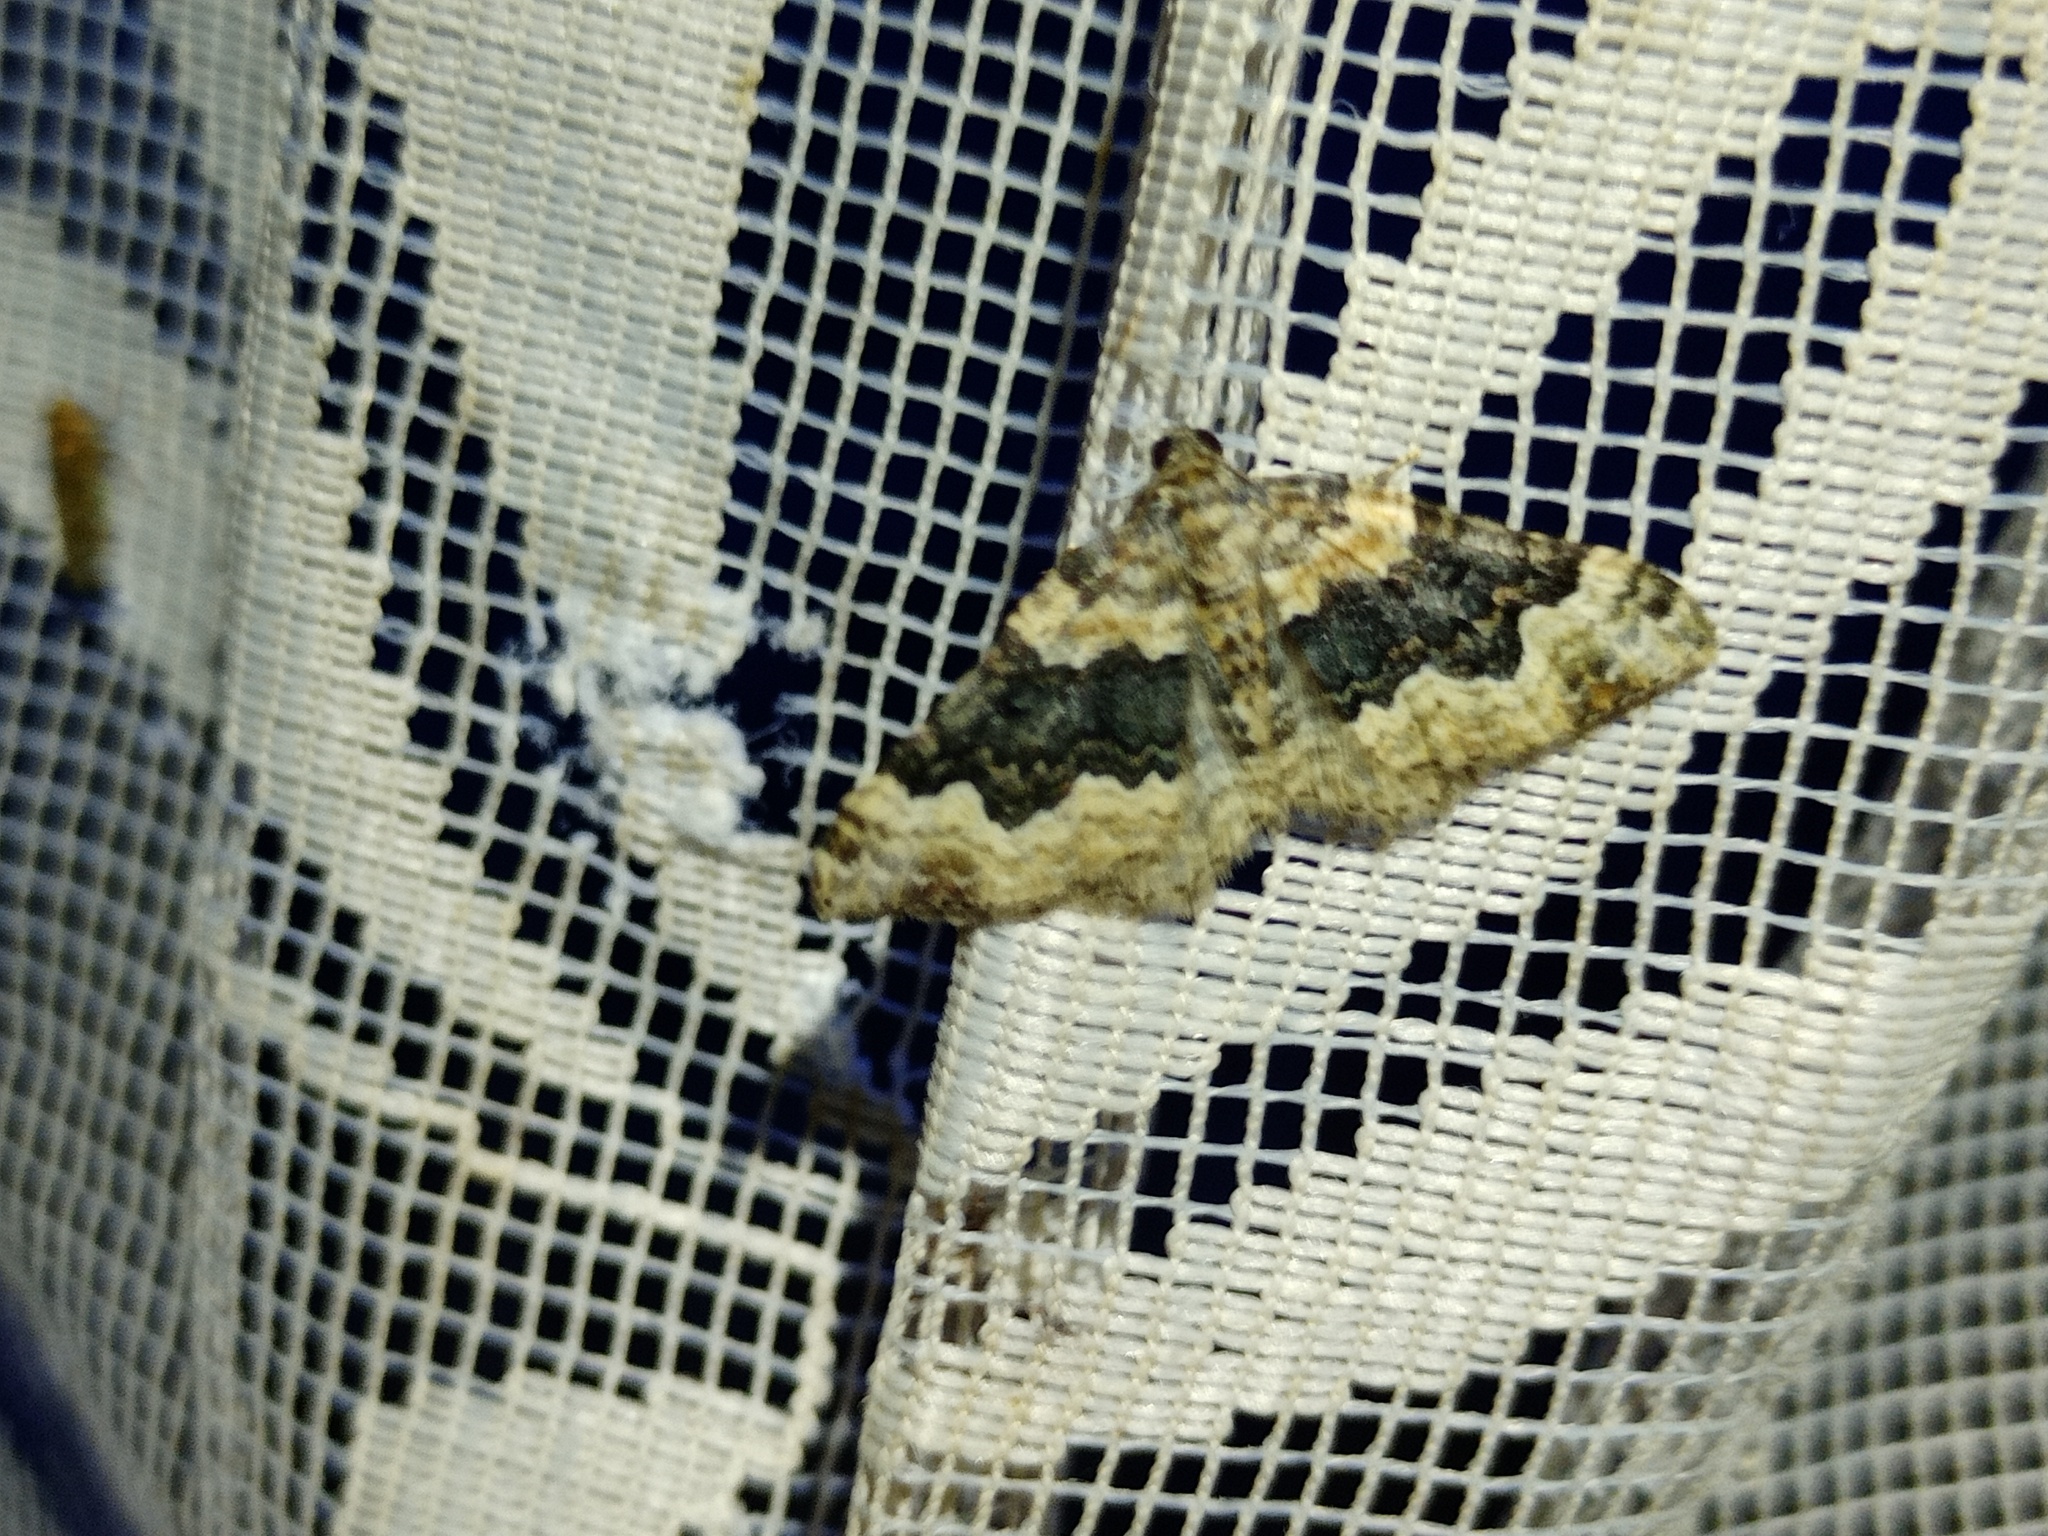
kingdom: Animalia
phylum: Arthropoda
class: Insecta
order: Lepidoptera
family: Geometridae
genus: Epirrhoe
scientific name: Epirrhoe galiata
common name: Galium carpet
